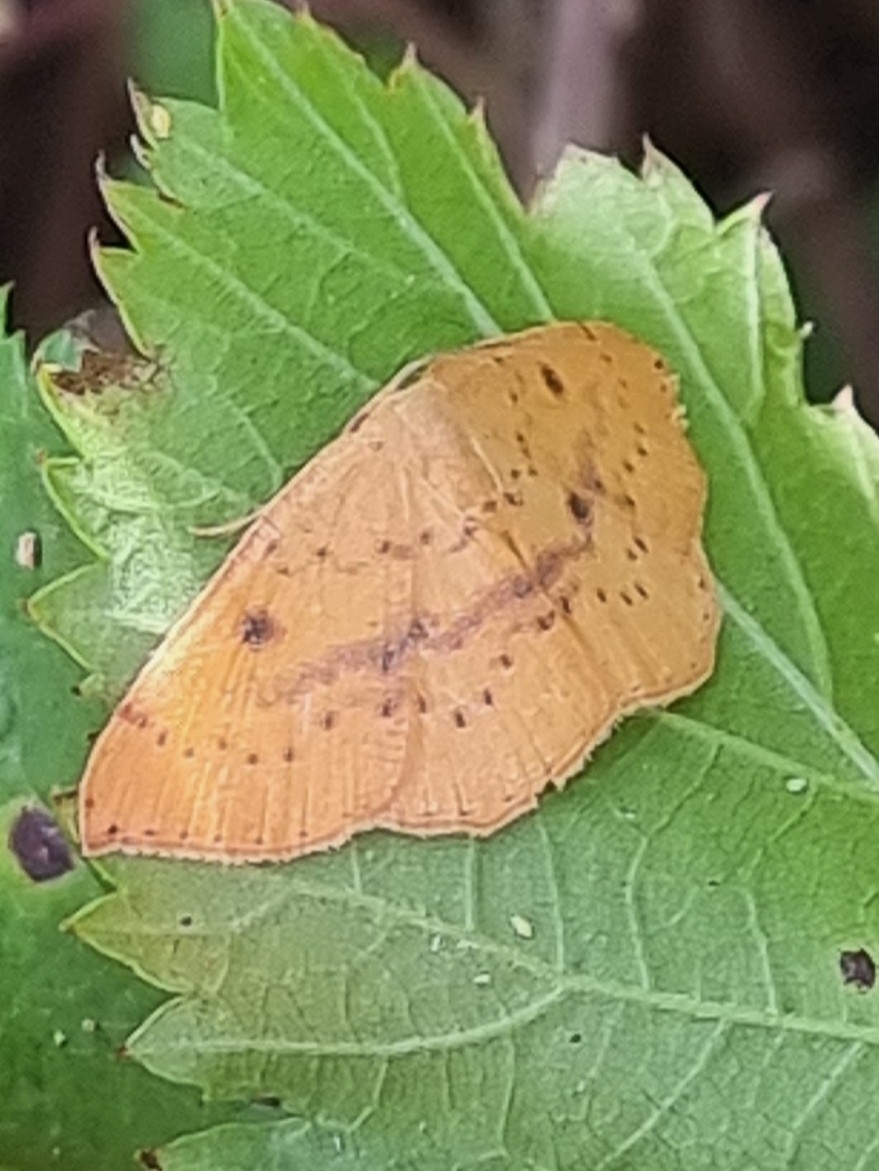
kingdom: Animalia
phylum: Arthropoda
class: Insecta
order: Lepidoptera
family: Geometridae
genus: Cyclophora
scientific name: Cyclophora puppillaria
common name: Blair's mocha
